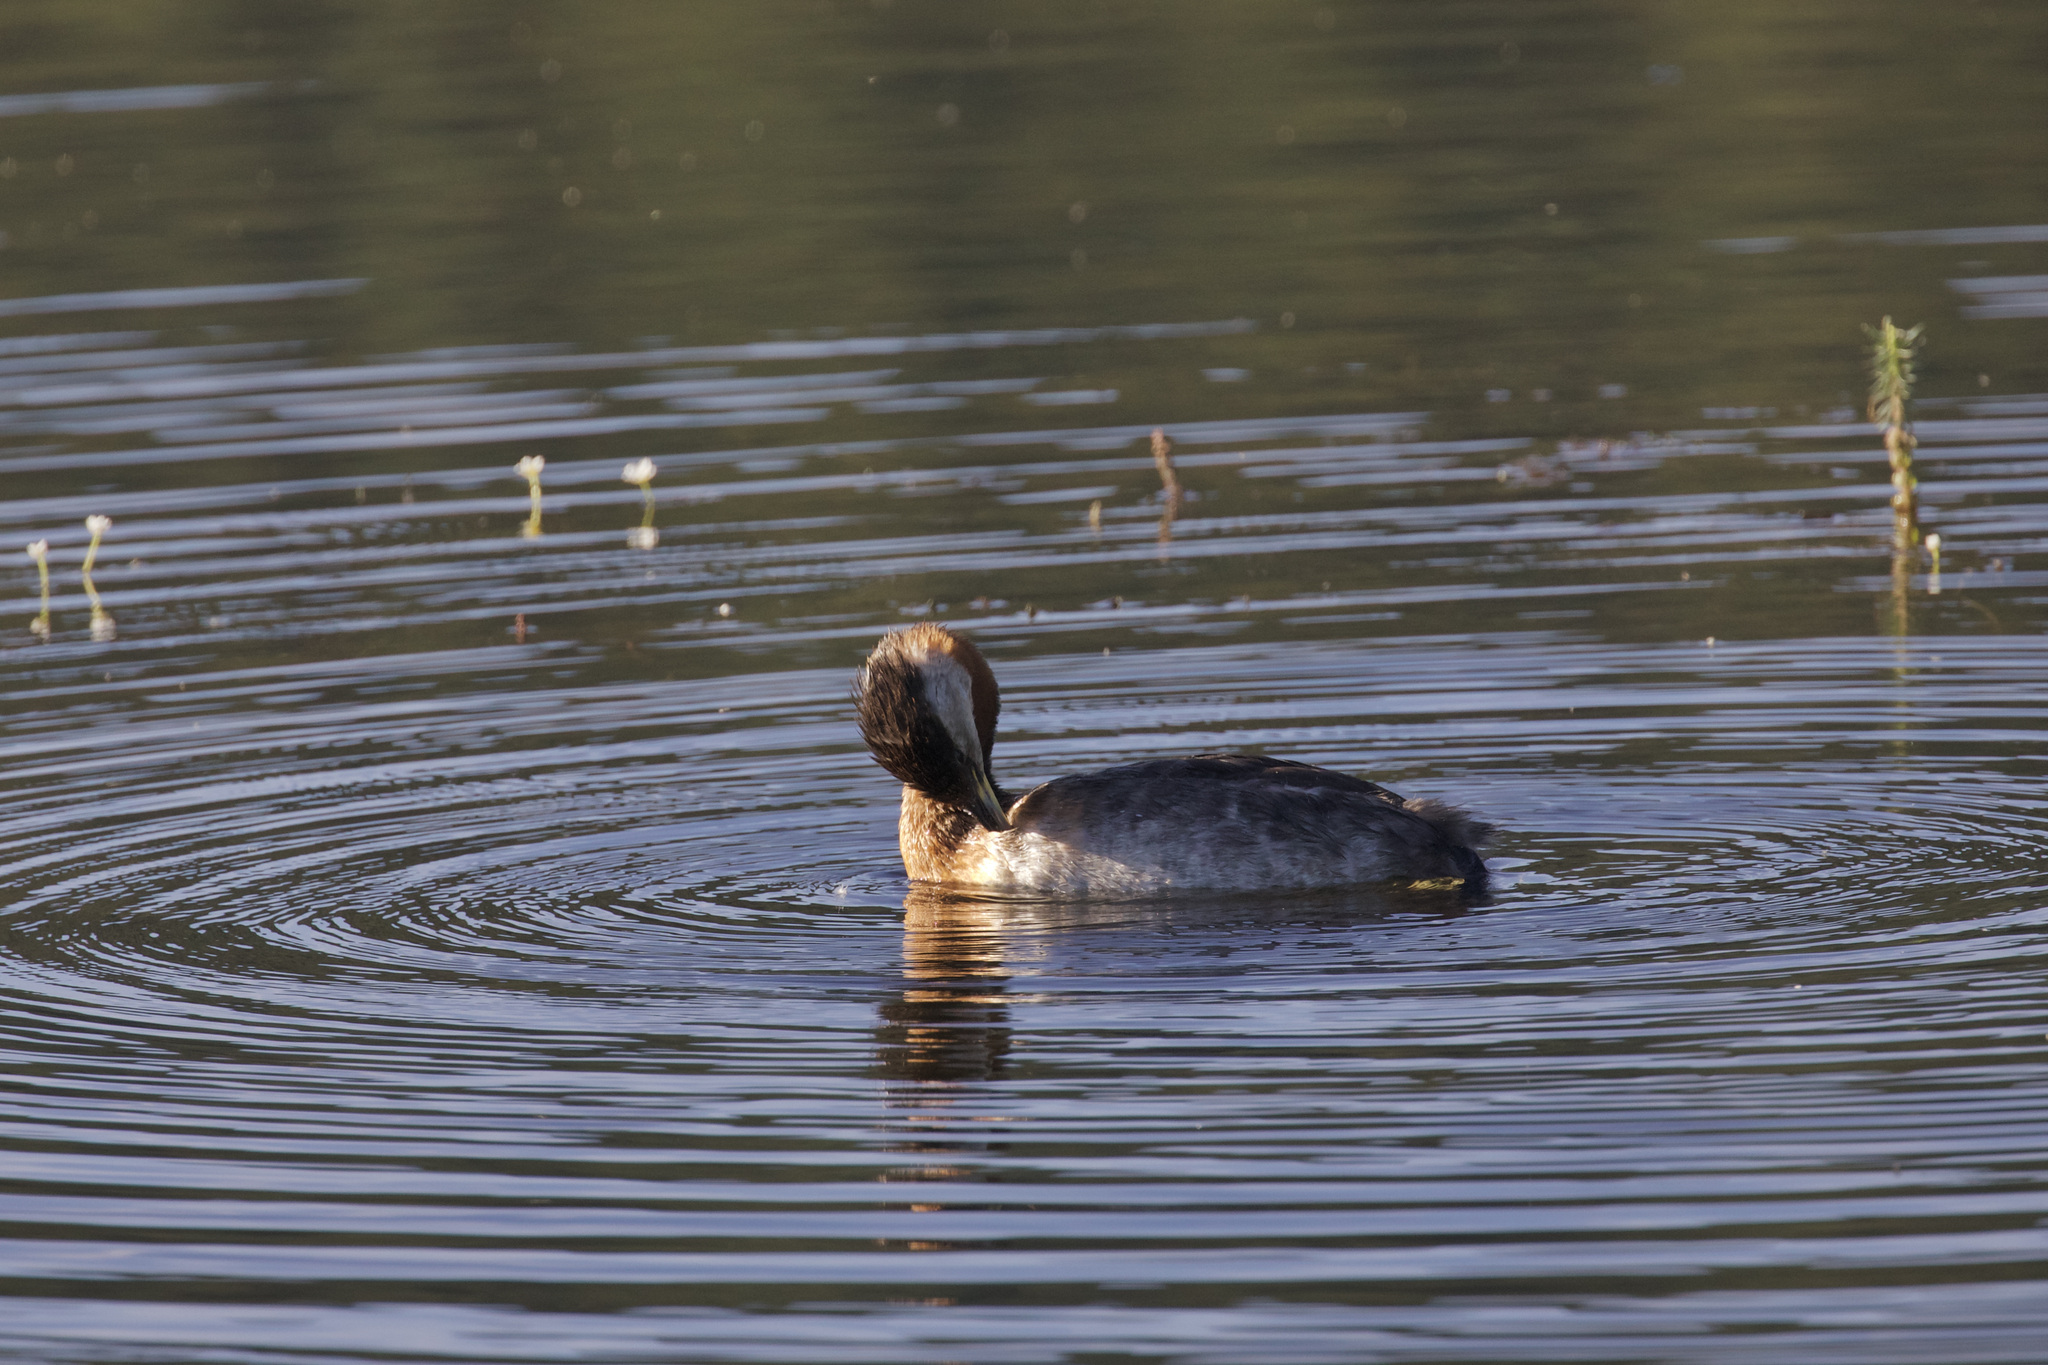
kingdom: Animalia
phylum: Chordata
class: Aves
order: Podicipediformes
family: Podicipedidae
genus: Podiceps
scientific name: Podiceps grisegena
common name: Red-necked grebe
